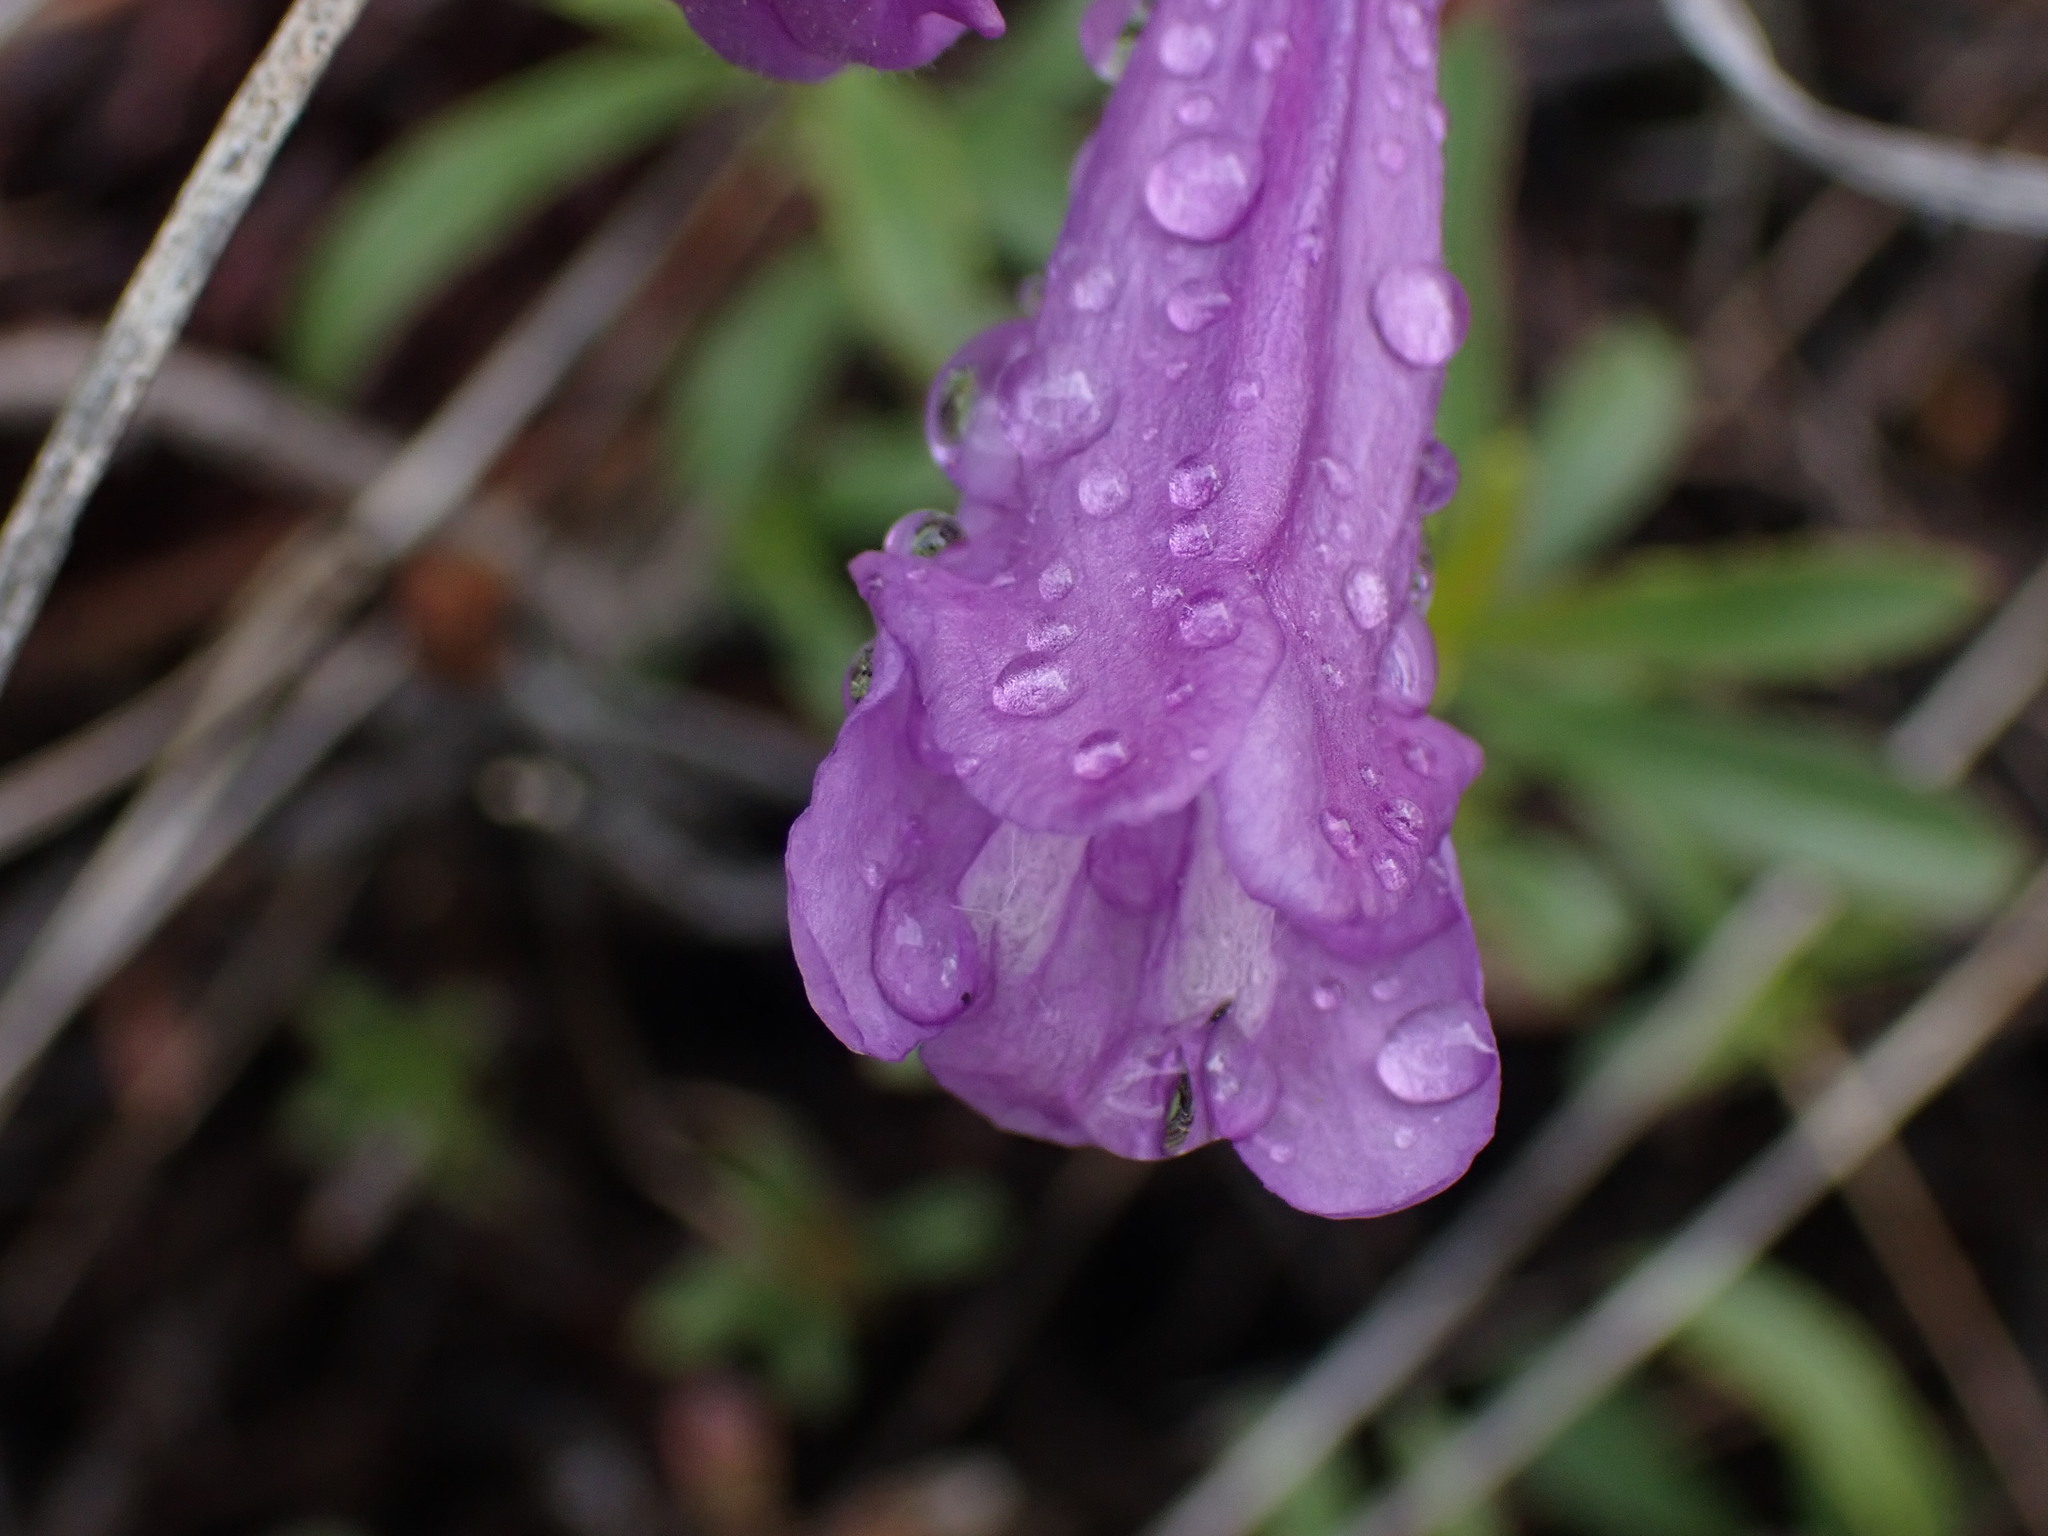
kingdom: Plantae
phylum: Tracheophyta
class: Magnoliopsida
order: Lamiales
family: Plantaginaceae
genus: Penstemon
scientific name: Penstemon fruticosus
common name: Bush penstemon
